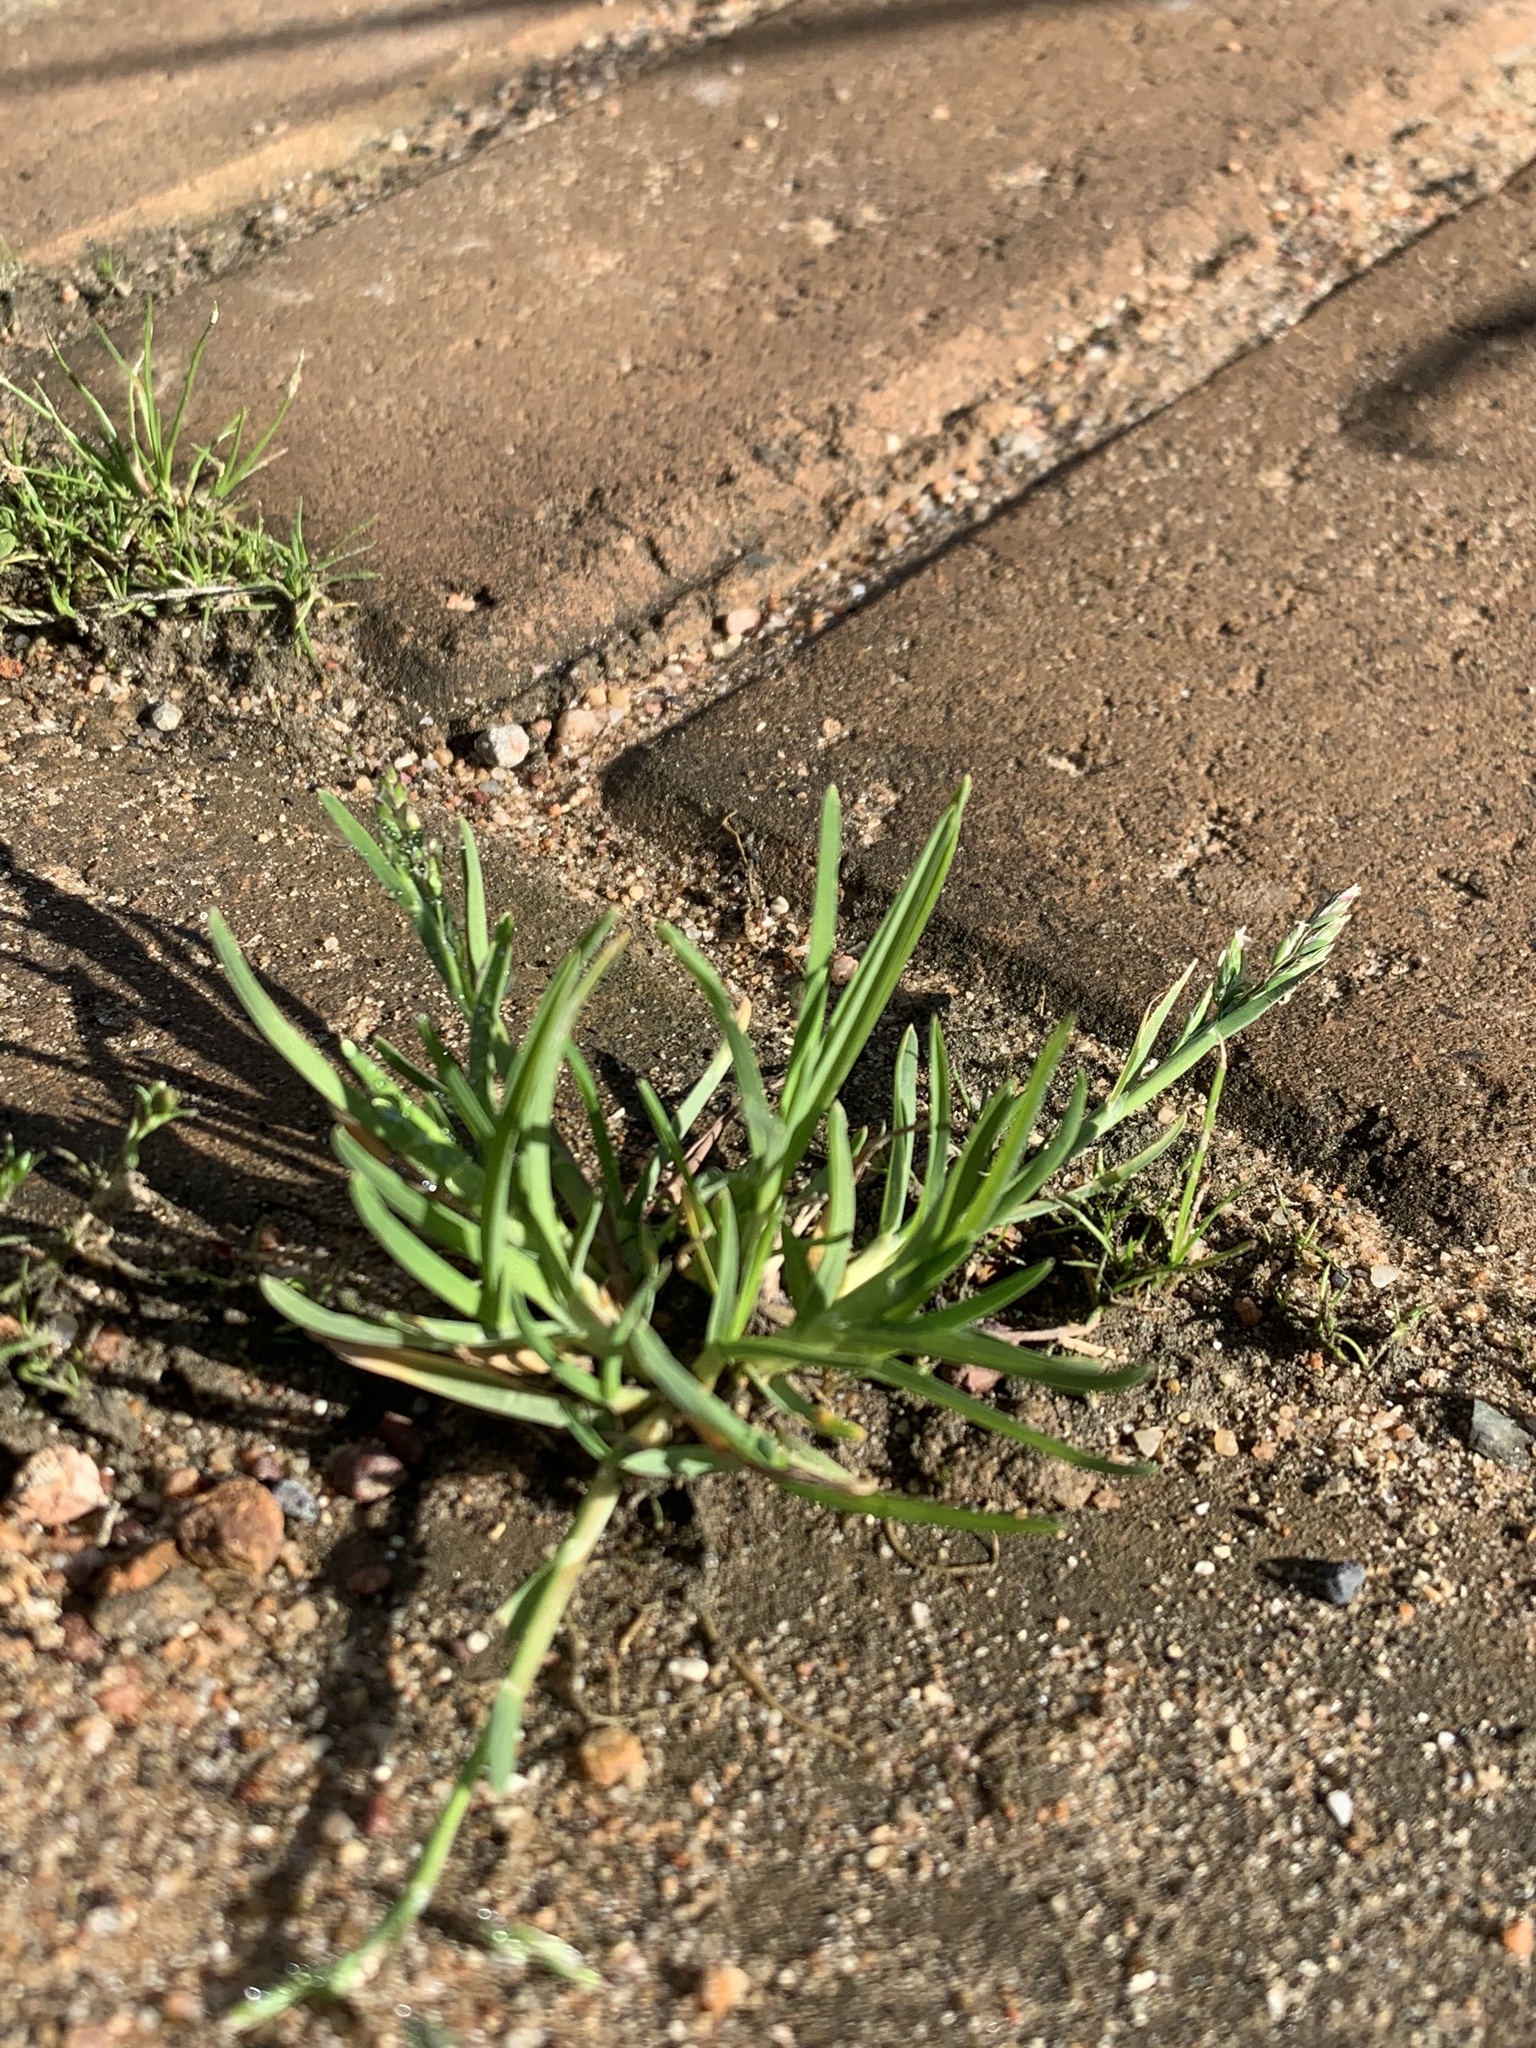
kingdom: Plantae
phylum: Tracheophyta
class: Liliopsida
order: Poales
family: Poaceae
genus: Poa
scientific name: Poa annua
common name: Annual bluegrass
